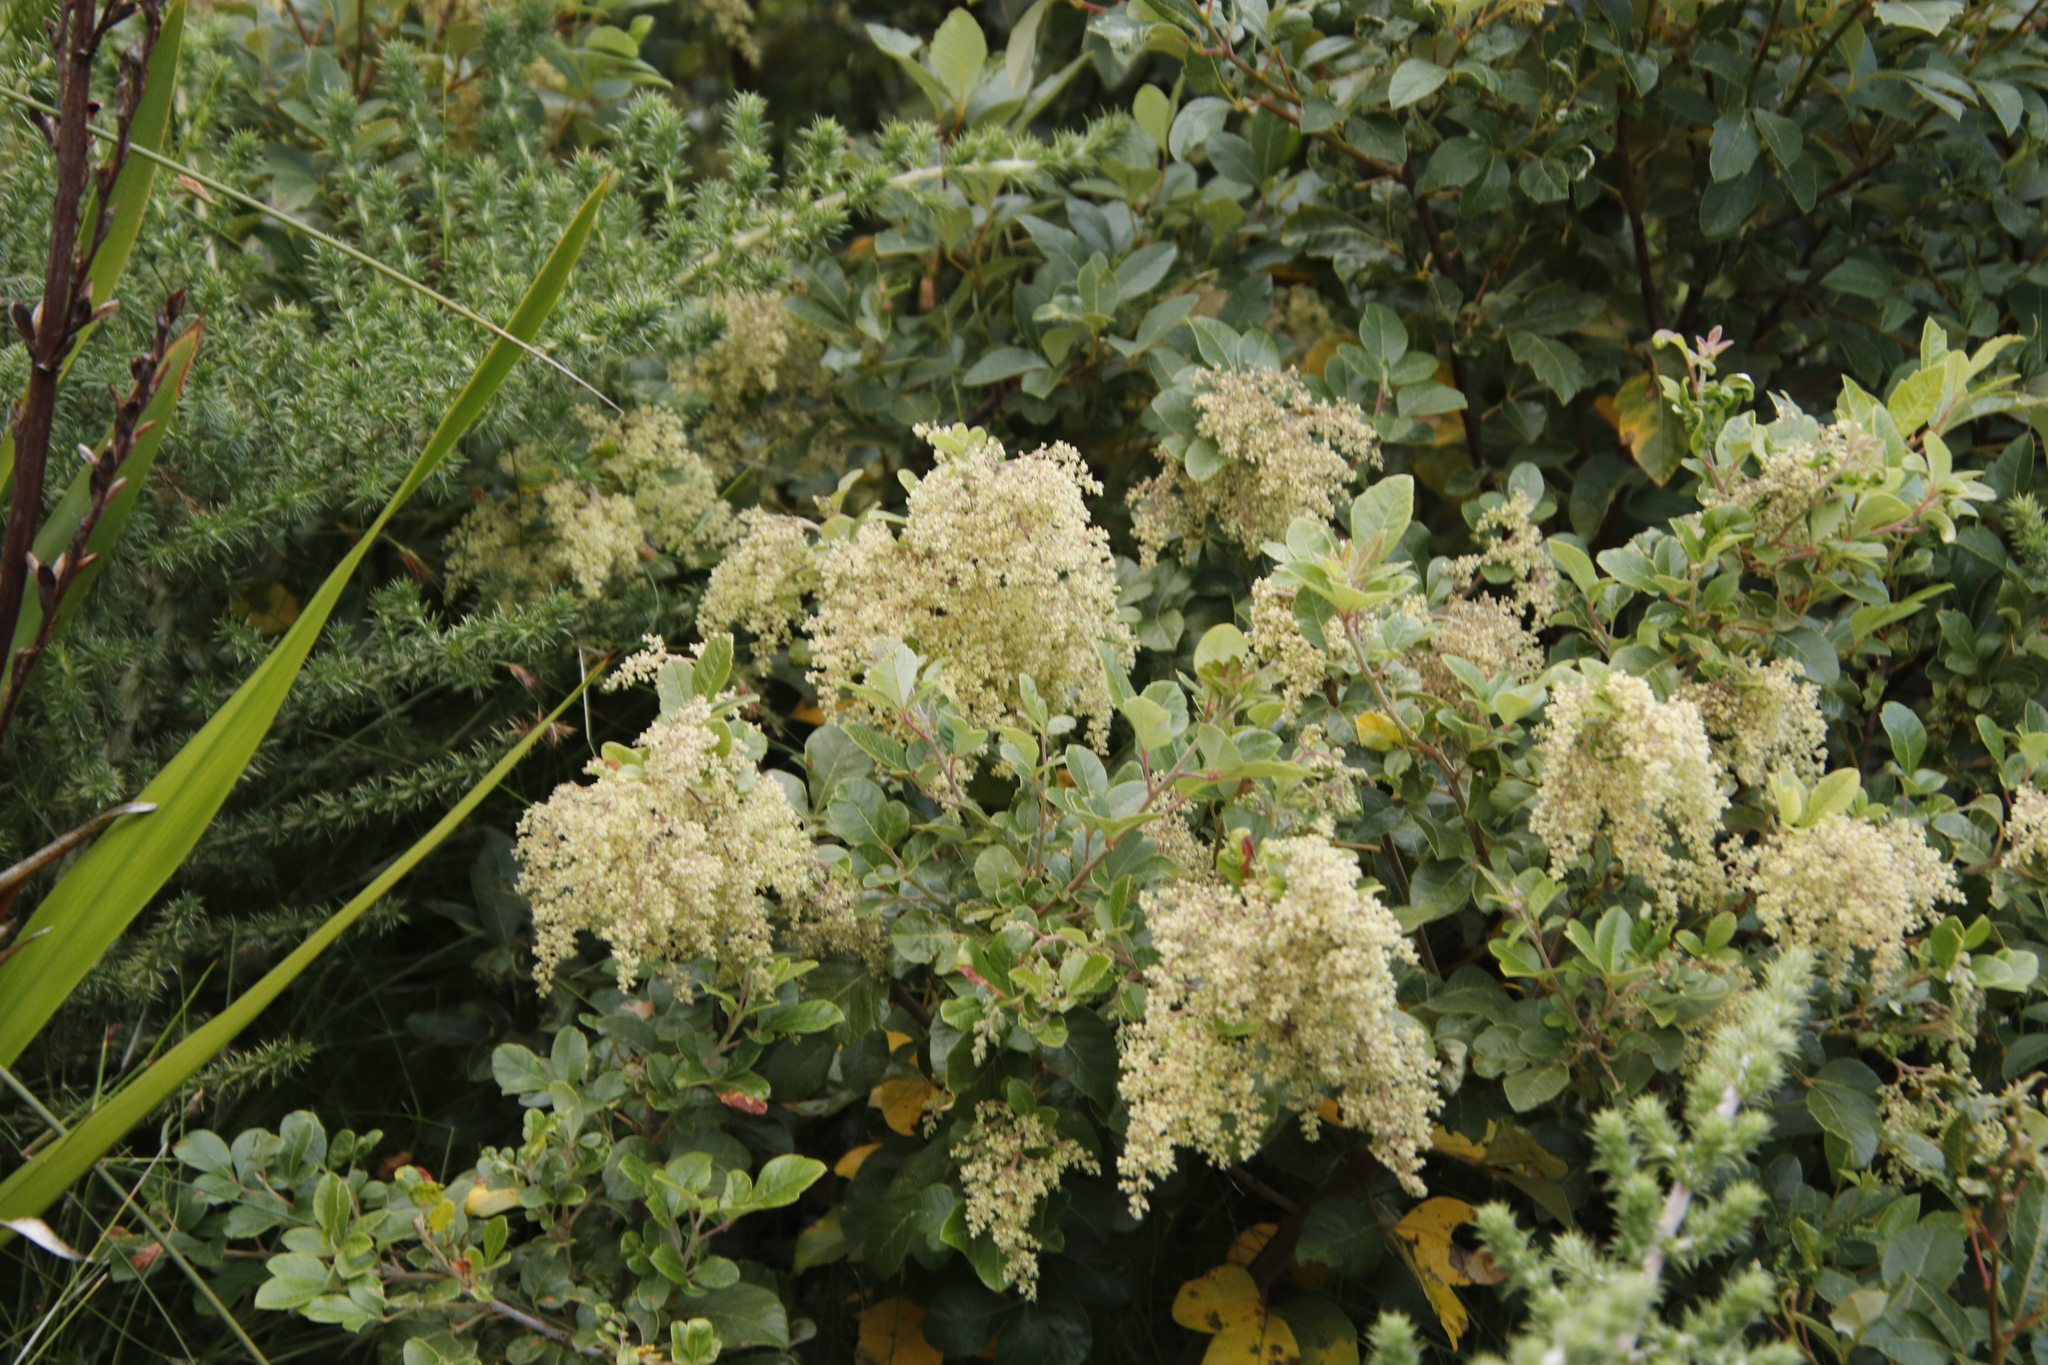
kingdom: Plantae
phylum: Tracheophyta
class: Magnoliopsida
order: Sapindales
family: Anacardiaceae
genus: Searsia
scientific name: Searsia tomentosa
